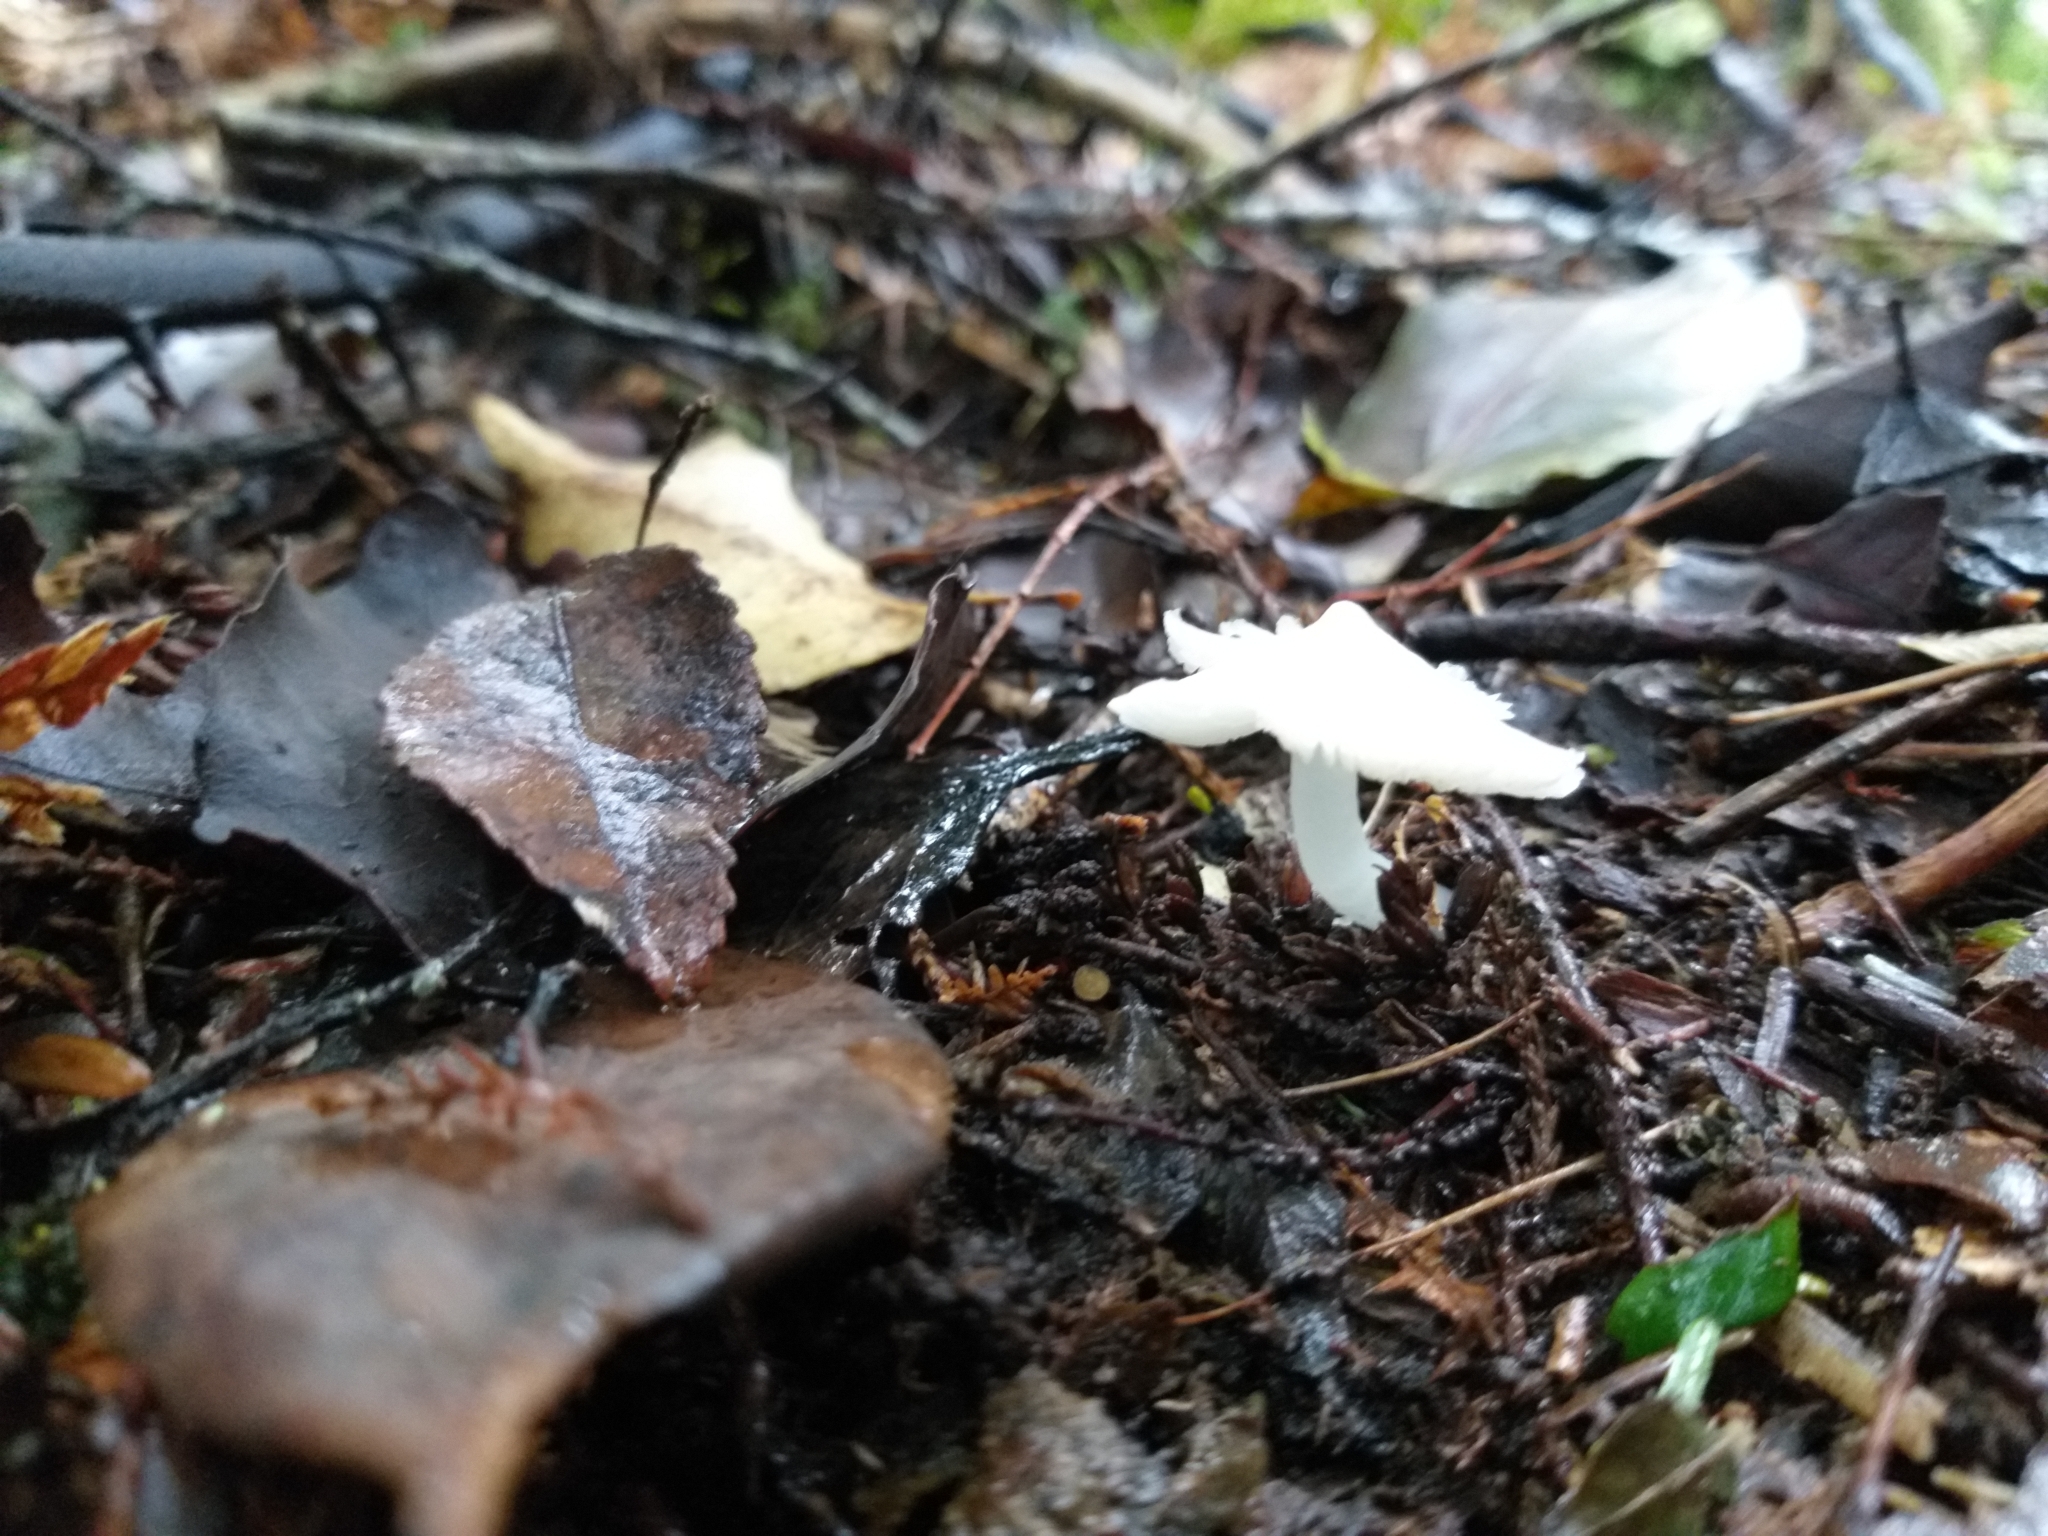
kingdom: Fungi
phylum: Basidiomycota
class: Agaricomycetes
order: Agaricales
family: Hygrophoraceae
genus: Humidicutis
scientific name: Humidicutis mavis
